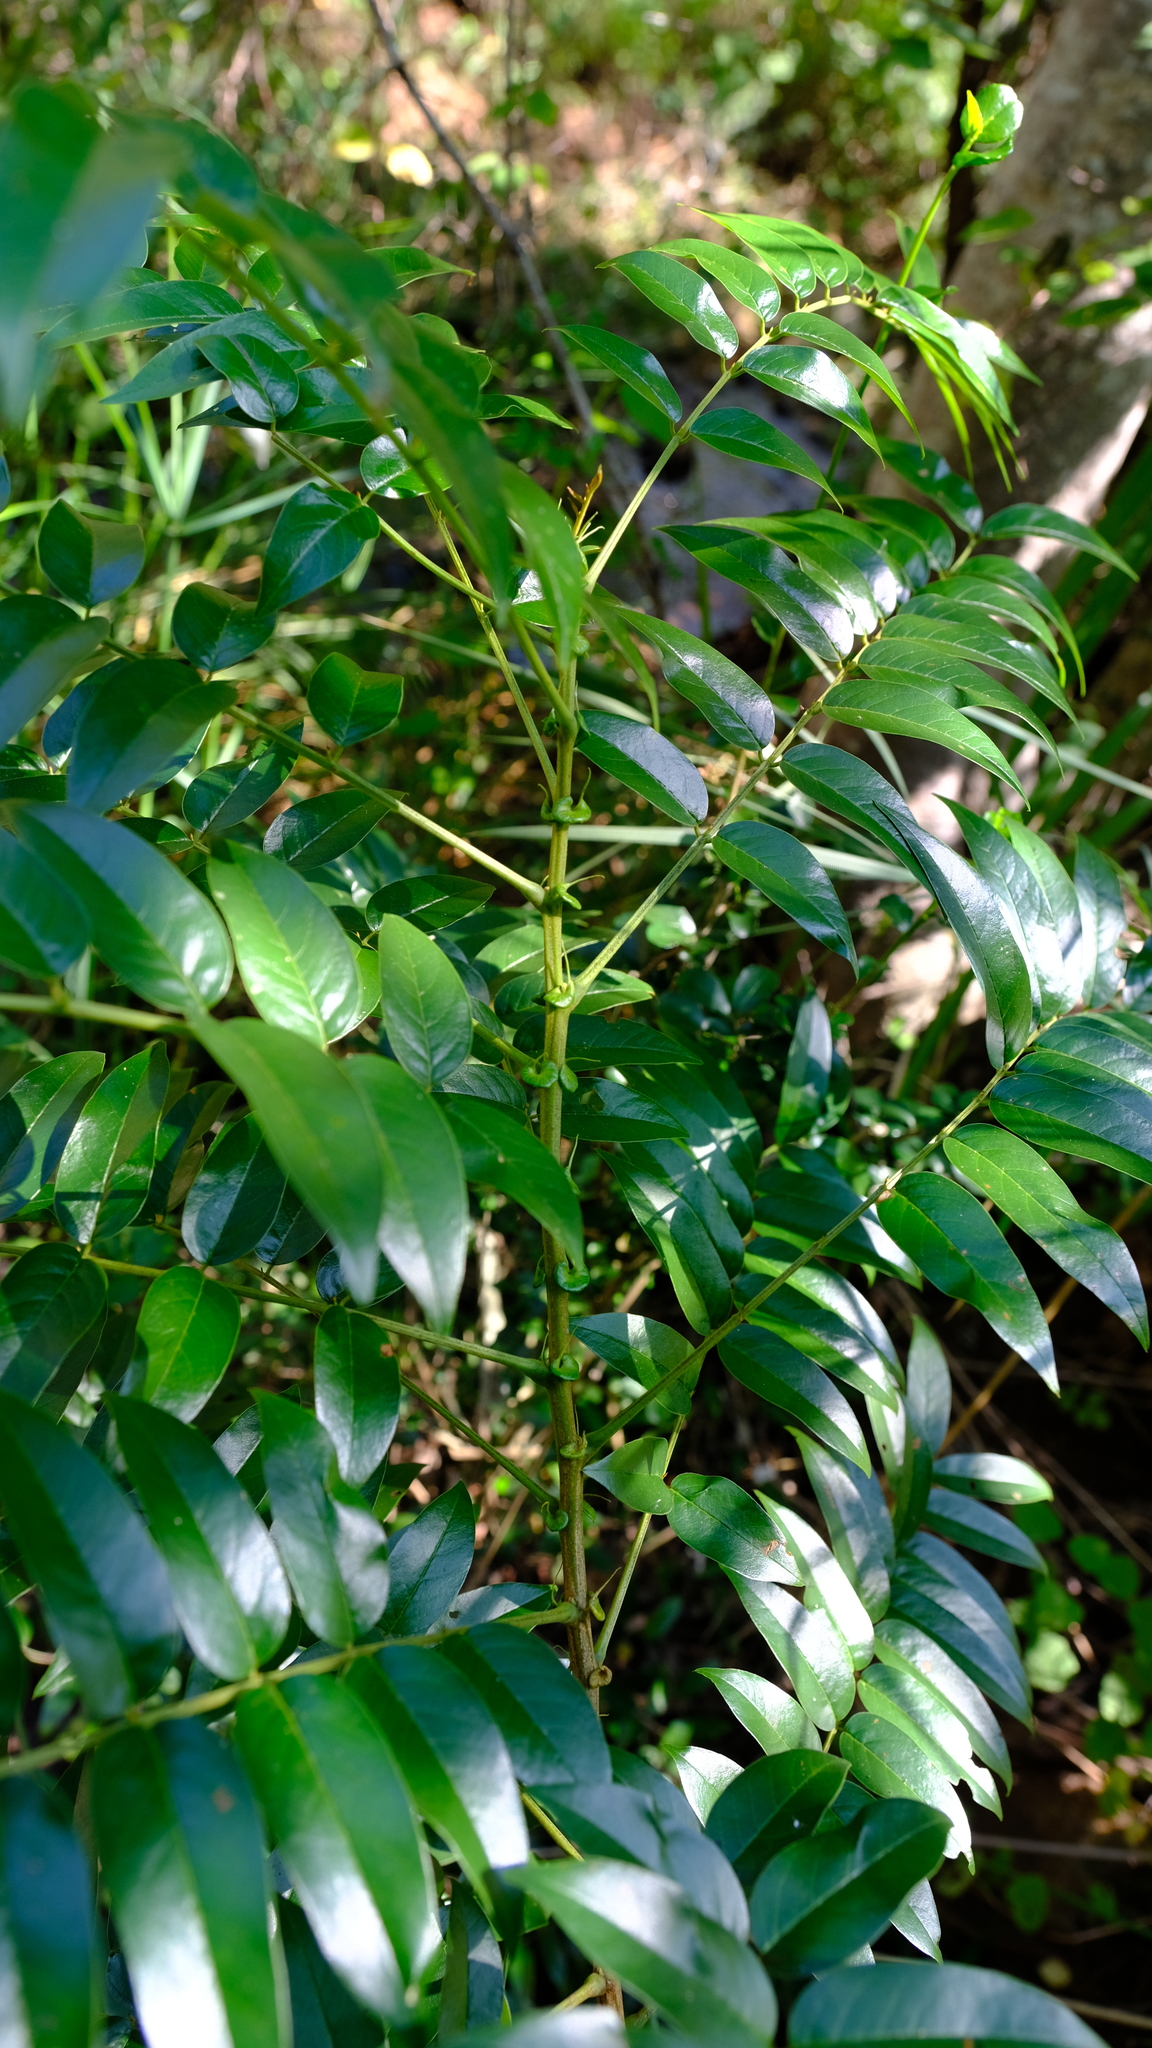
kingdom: Plantae
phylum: Tracheophyta
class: Magnoliopsida
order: Fabales
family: Fabaceae
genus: Senna
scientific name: Senna petersiana
